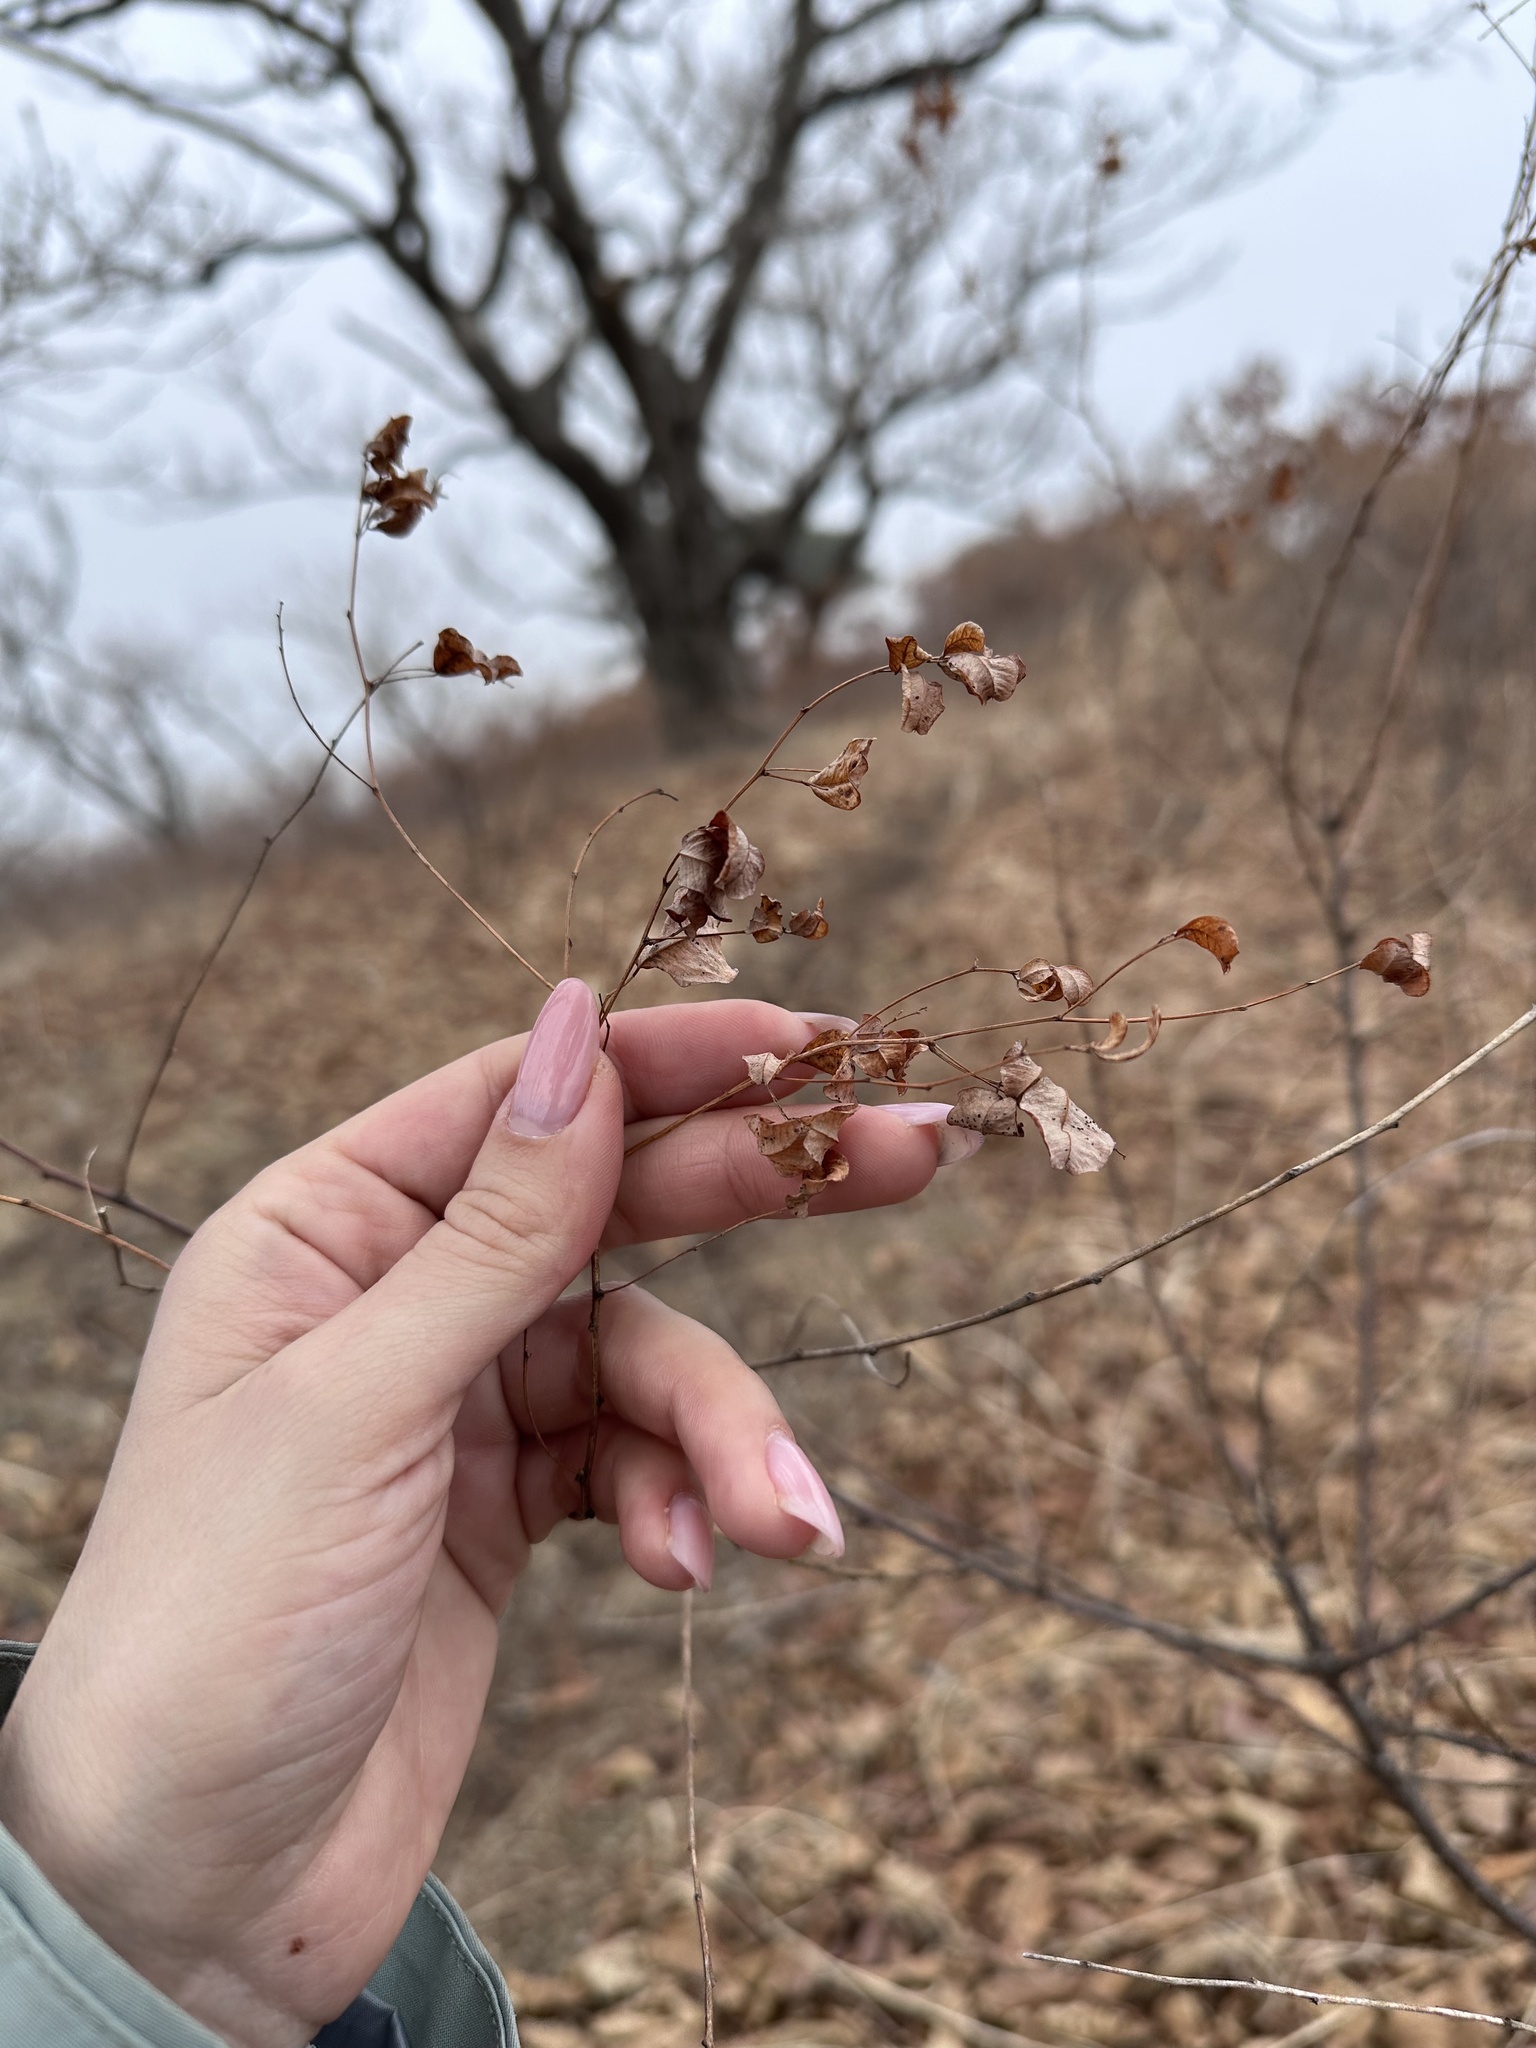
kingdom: Plantae
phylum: Tracheophyta
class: Magnoliopsida
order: Fabales
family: Fabaceae
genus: Lespedeza
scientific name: Lespedeza bicolor
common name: Shrub lespedeza
